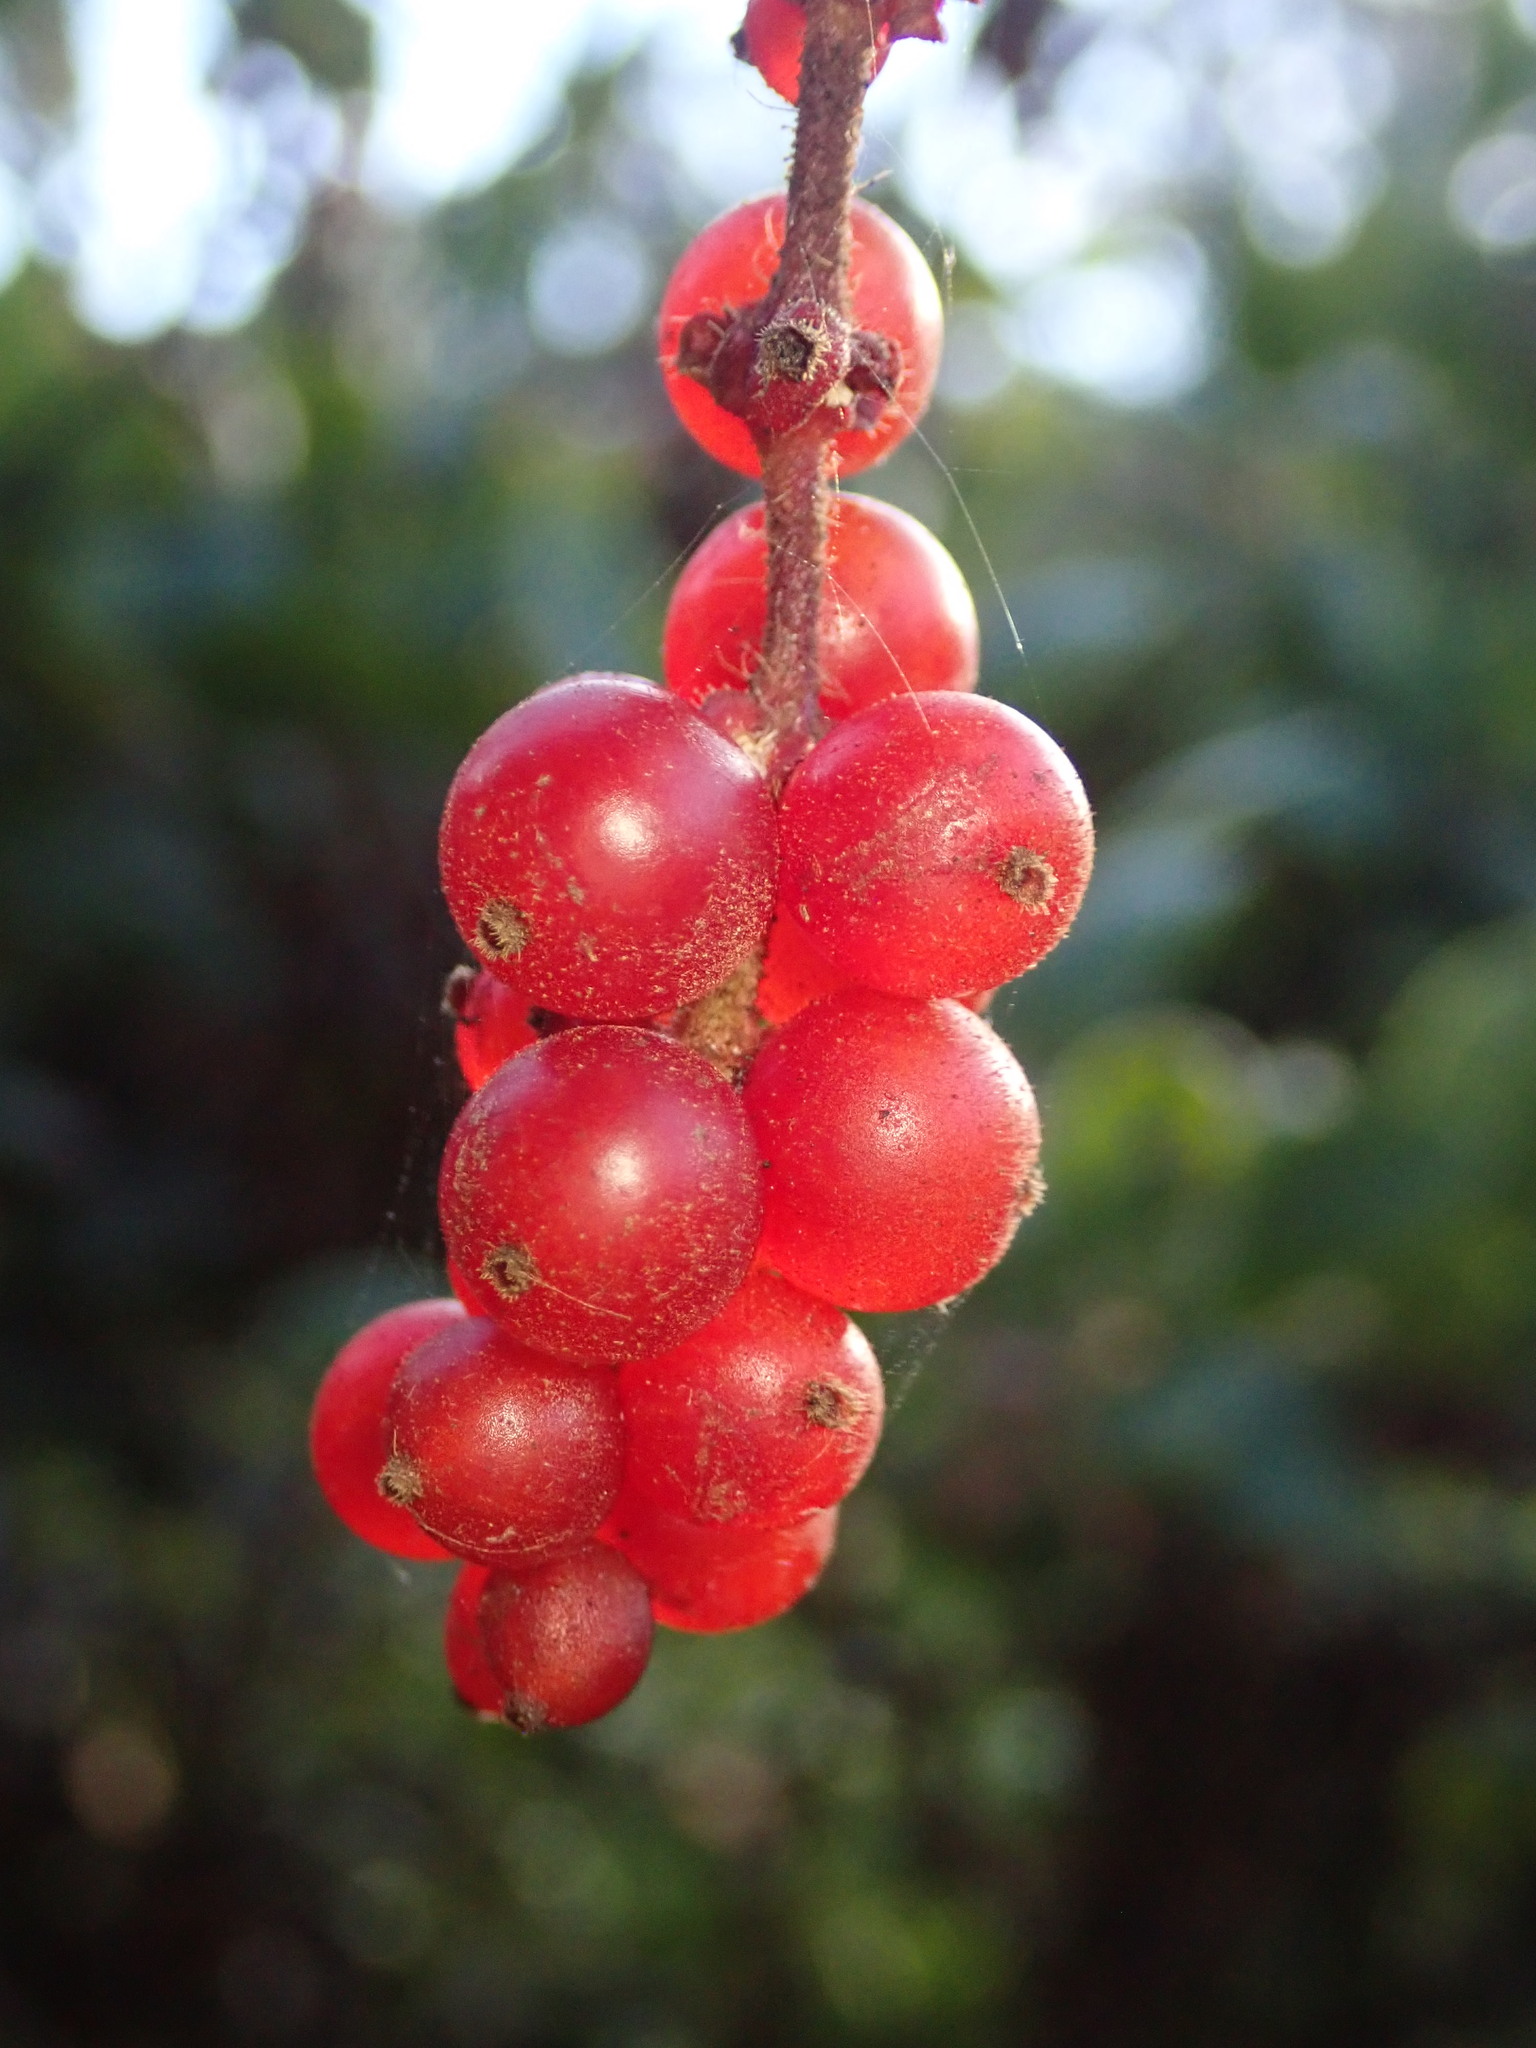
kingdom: Plantae
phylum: Tracheophyta
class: Magnoliopsida
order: Dipsacales
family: Caprifoliaceae
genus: Lonicera
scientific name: Lonicera hispidula
